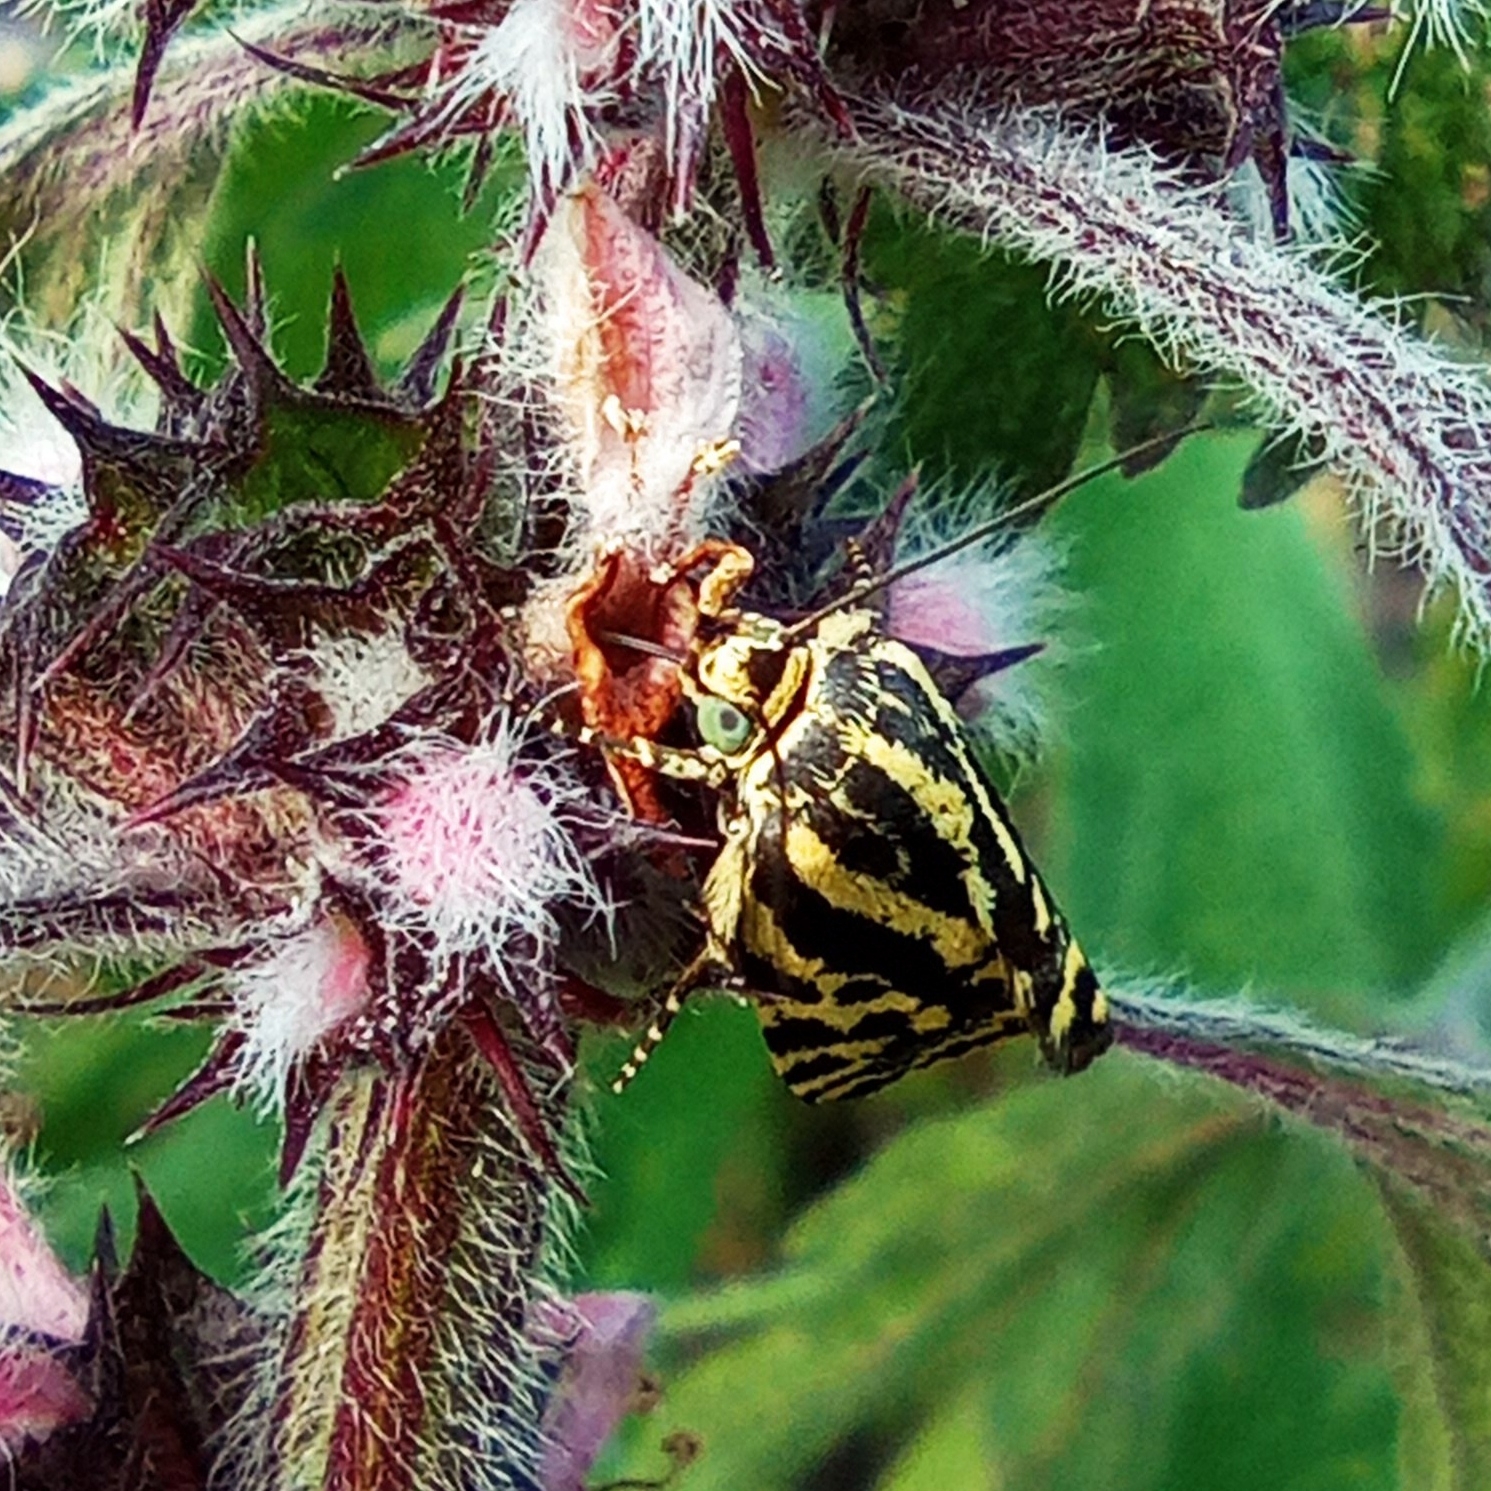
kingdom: Animalia
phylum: Arthropoda
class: Insecta
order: Lepidoptera
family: Noctuidae
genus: Acontia
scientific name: Acontia trabealis
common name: Spotted sulphur
